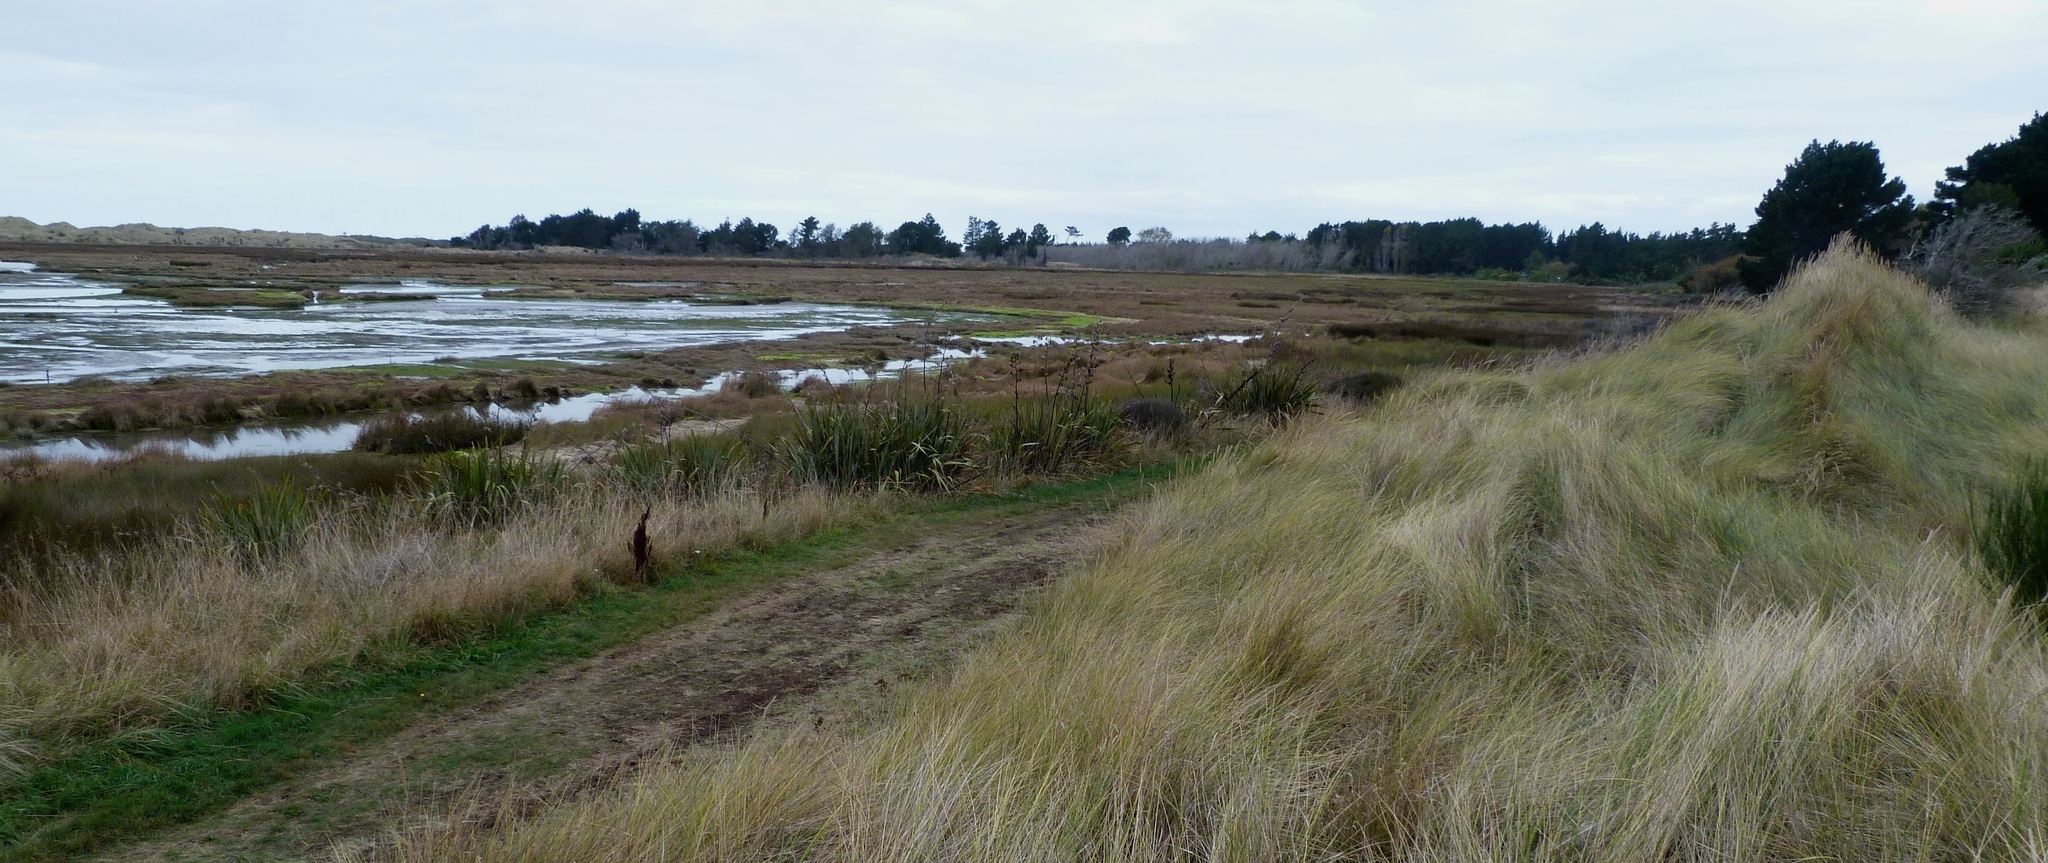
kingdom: Plantae
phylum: Tracheophyta
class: Liliopsida
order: Poales
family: Poaceae
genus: Calamagrostis
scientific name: Calamagrostis arenaria
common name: European beachgrass
